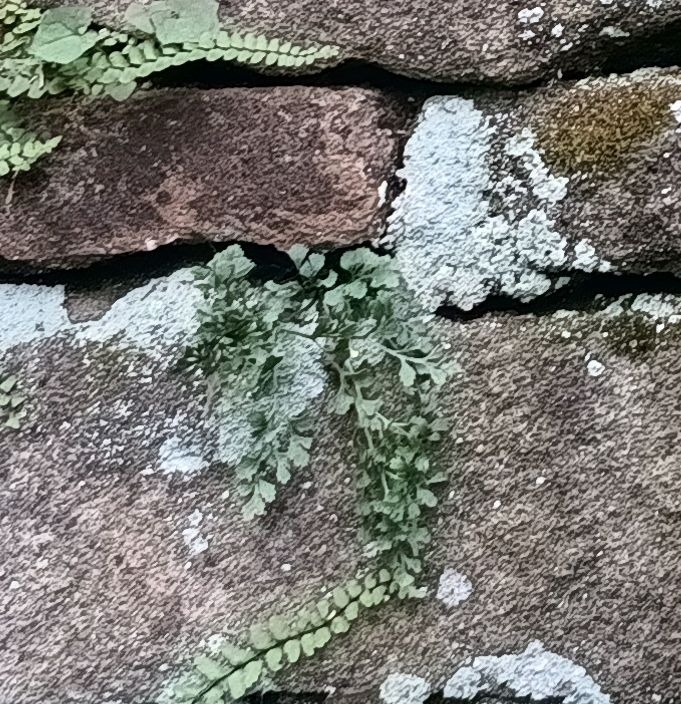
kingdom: Plantae
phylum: Tracheophyta
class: Polypodiopsida
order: Polypodiales
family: Aspleniaceae
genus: Asplenium
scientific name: Asplenium ruta-muraria
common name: Wall-rue
